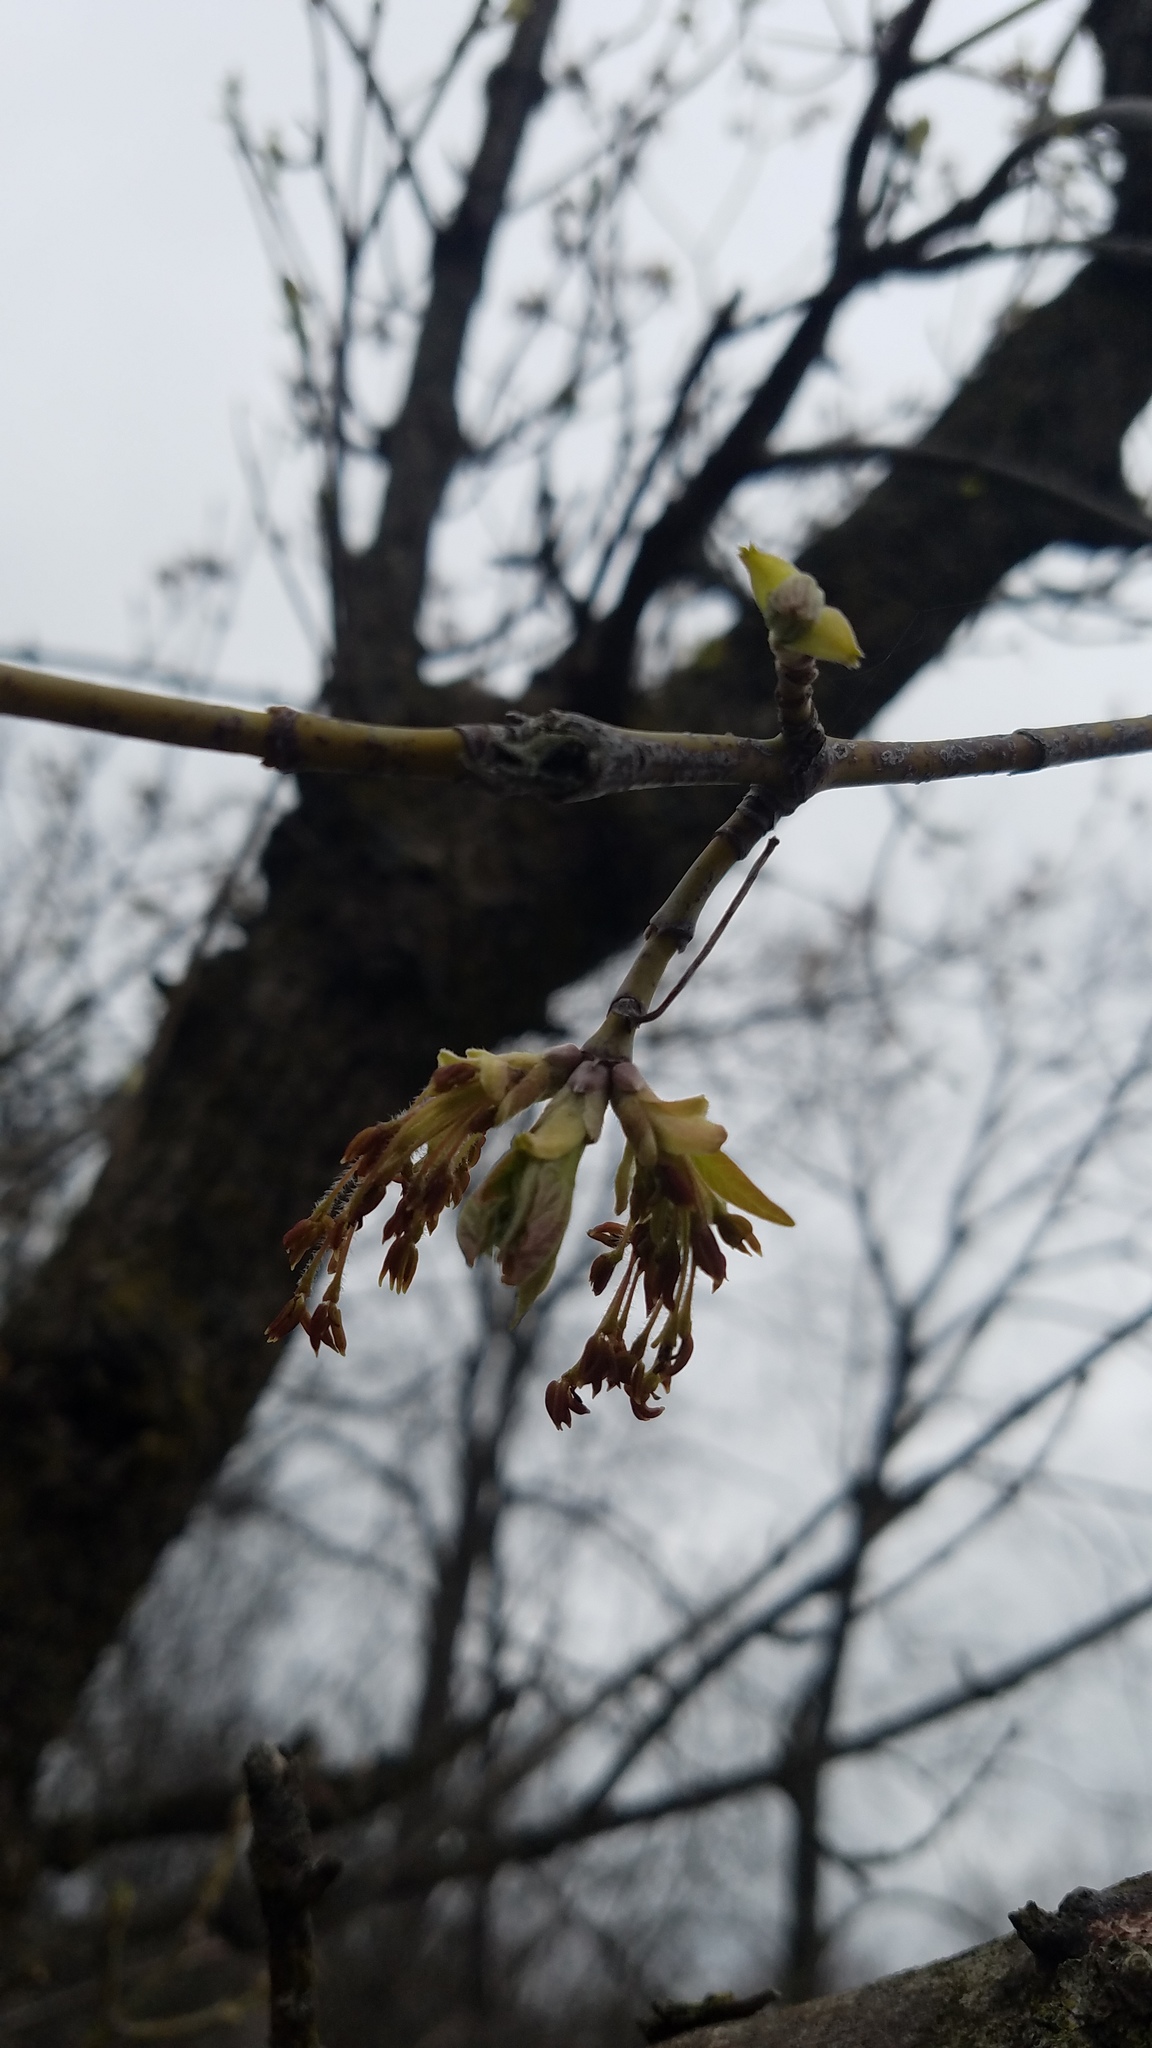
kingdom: Plantae
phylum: Tracheophyta
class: Magnoliopsida
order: Sapindales
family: Sapindaceae
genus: Acer
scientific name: Acer negundo
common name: Ashleaf maple
